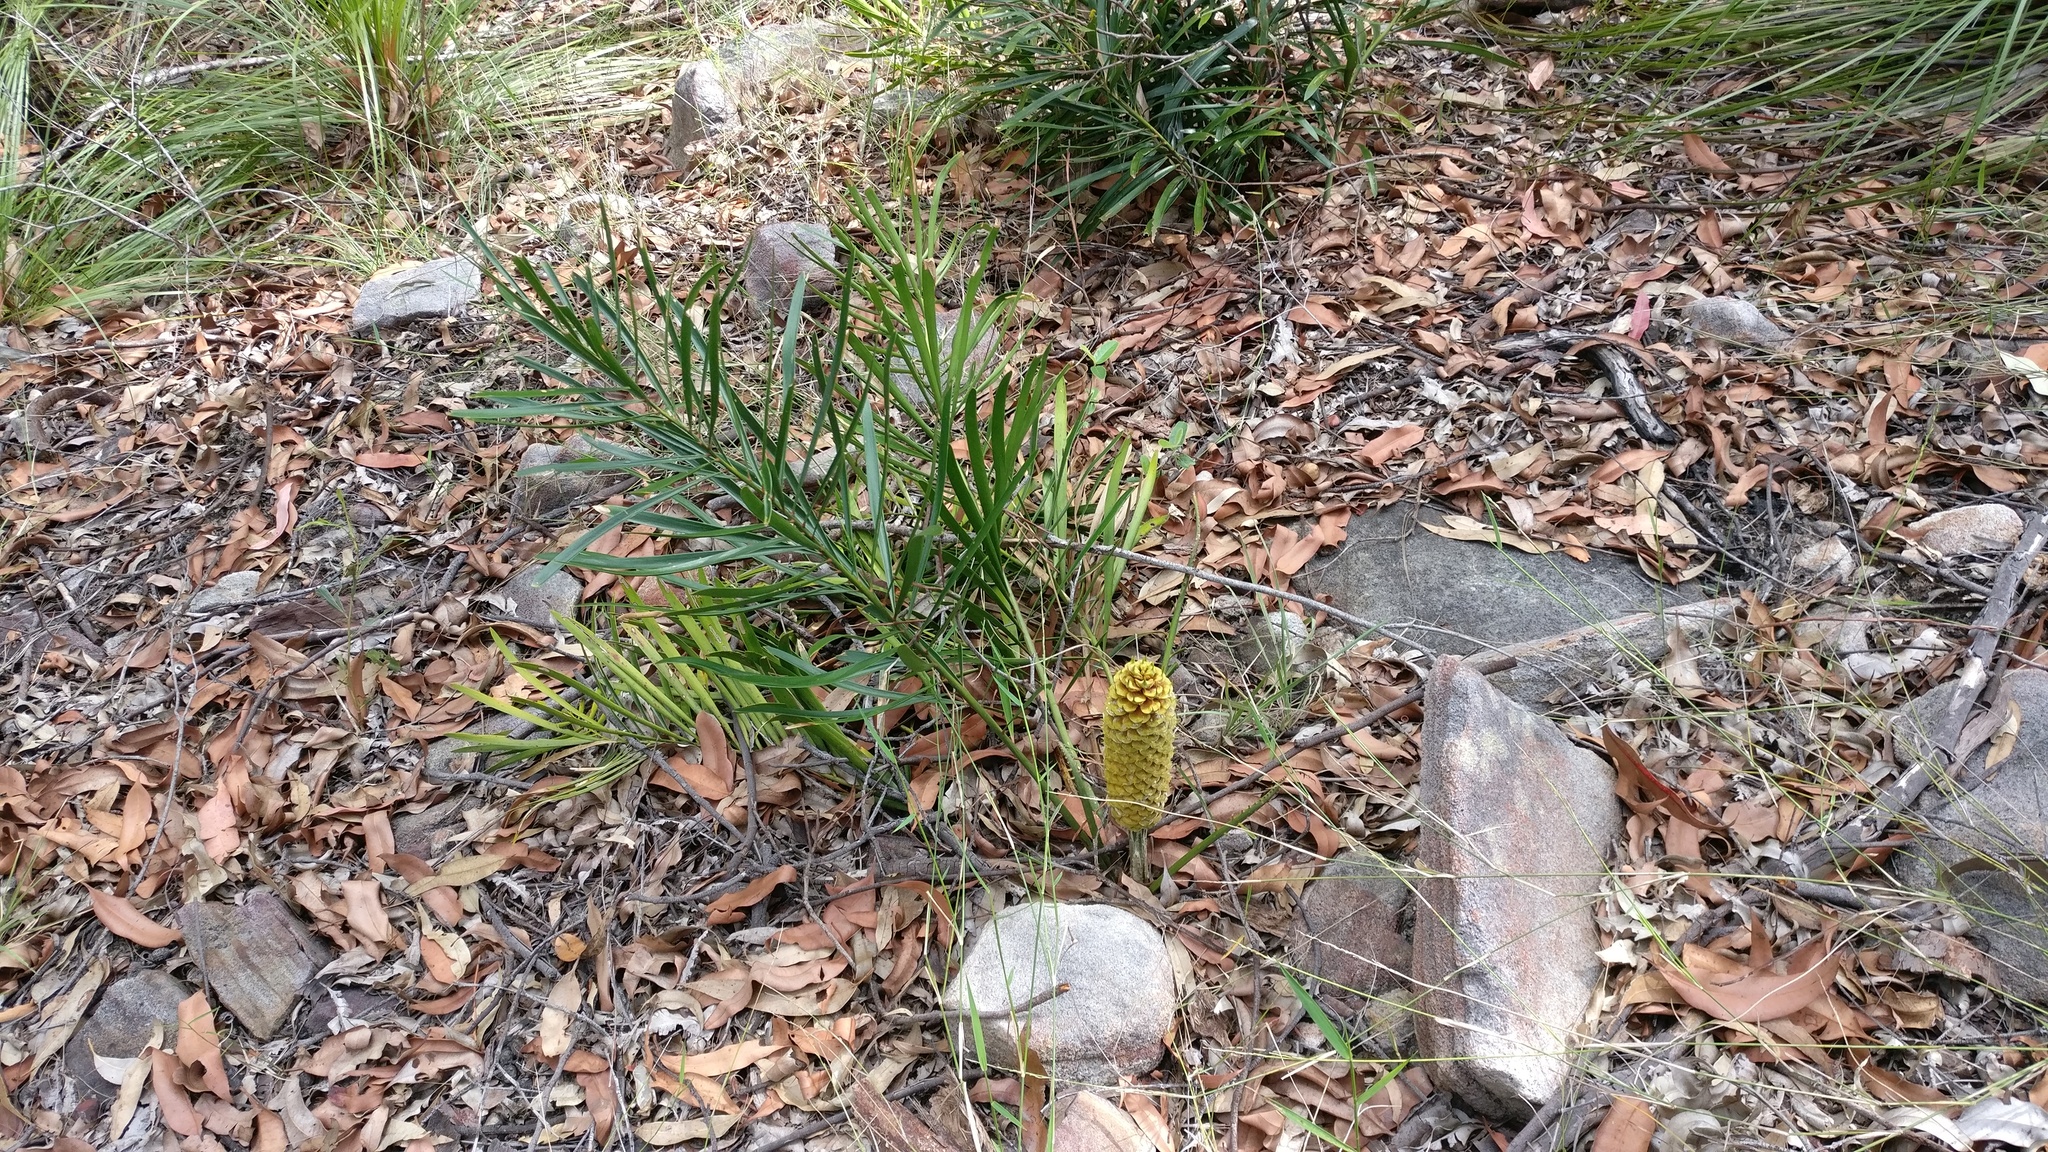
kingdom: Plantae
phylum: Tracheophyta
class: Cycadopsida
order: Cycadales
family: Zamiaceae
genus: Macrozamia
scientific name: Macrozamia fawcettii
